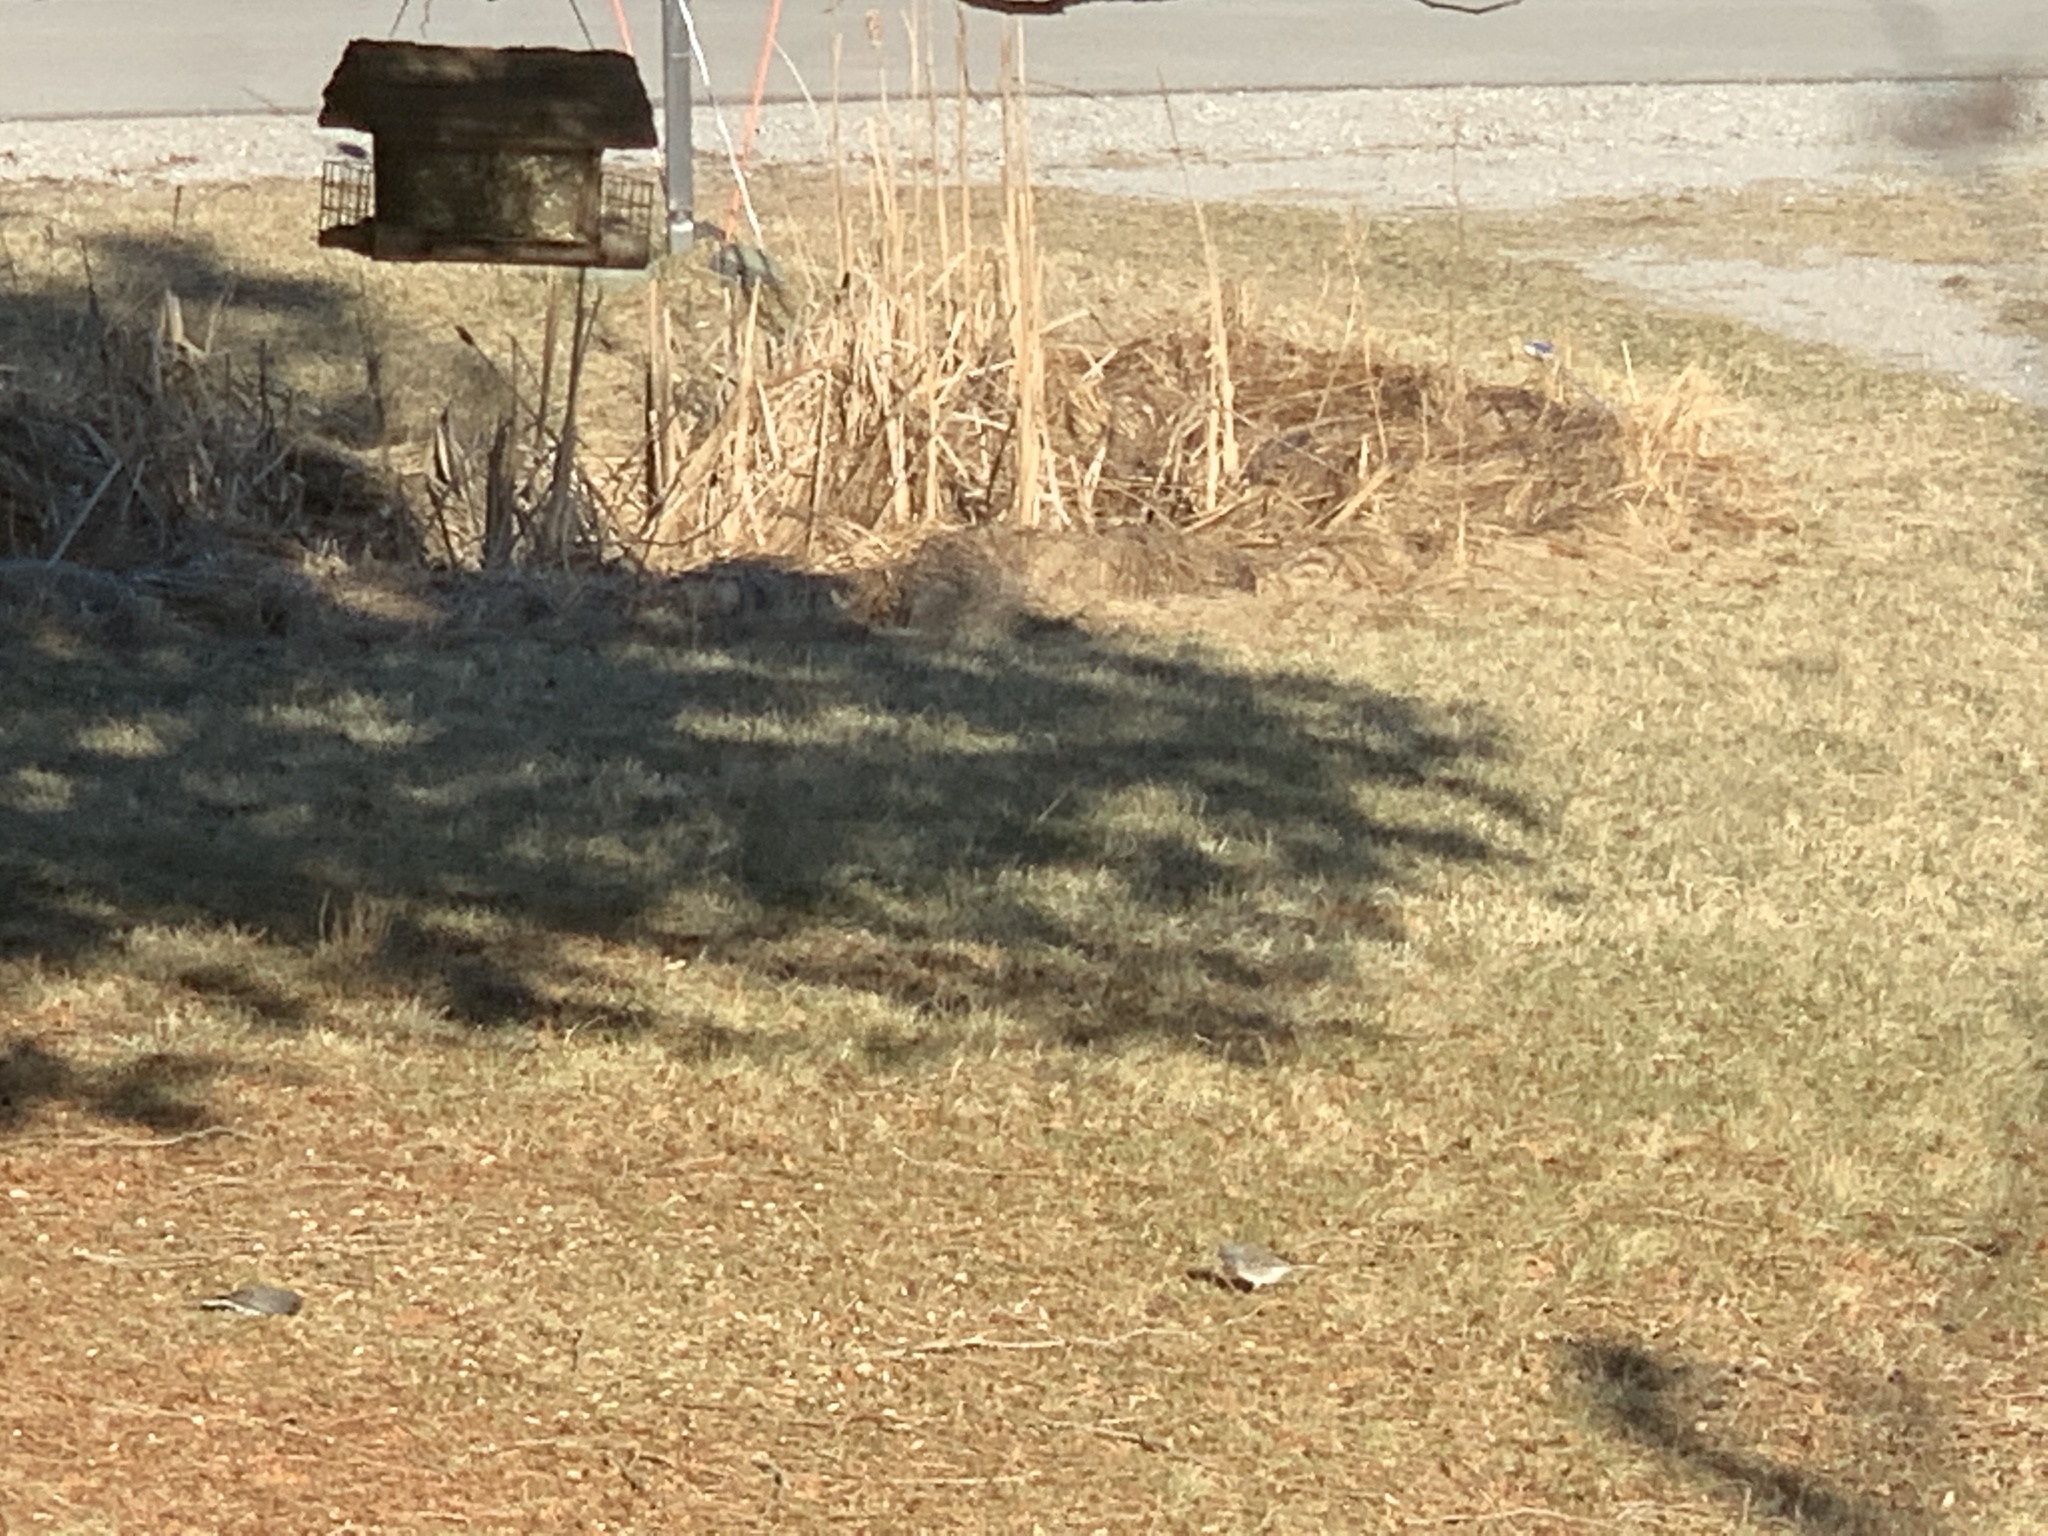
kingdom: Animalia
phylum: Chordata
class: Aves
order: Passeriformes
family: Passerellidae
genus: Junco
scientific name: Junco hyemalis
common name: Dark-eyed junco
